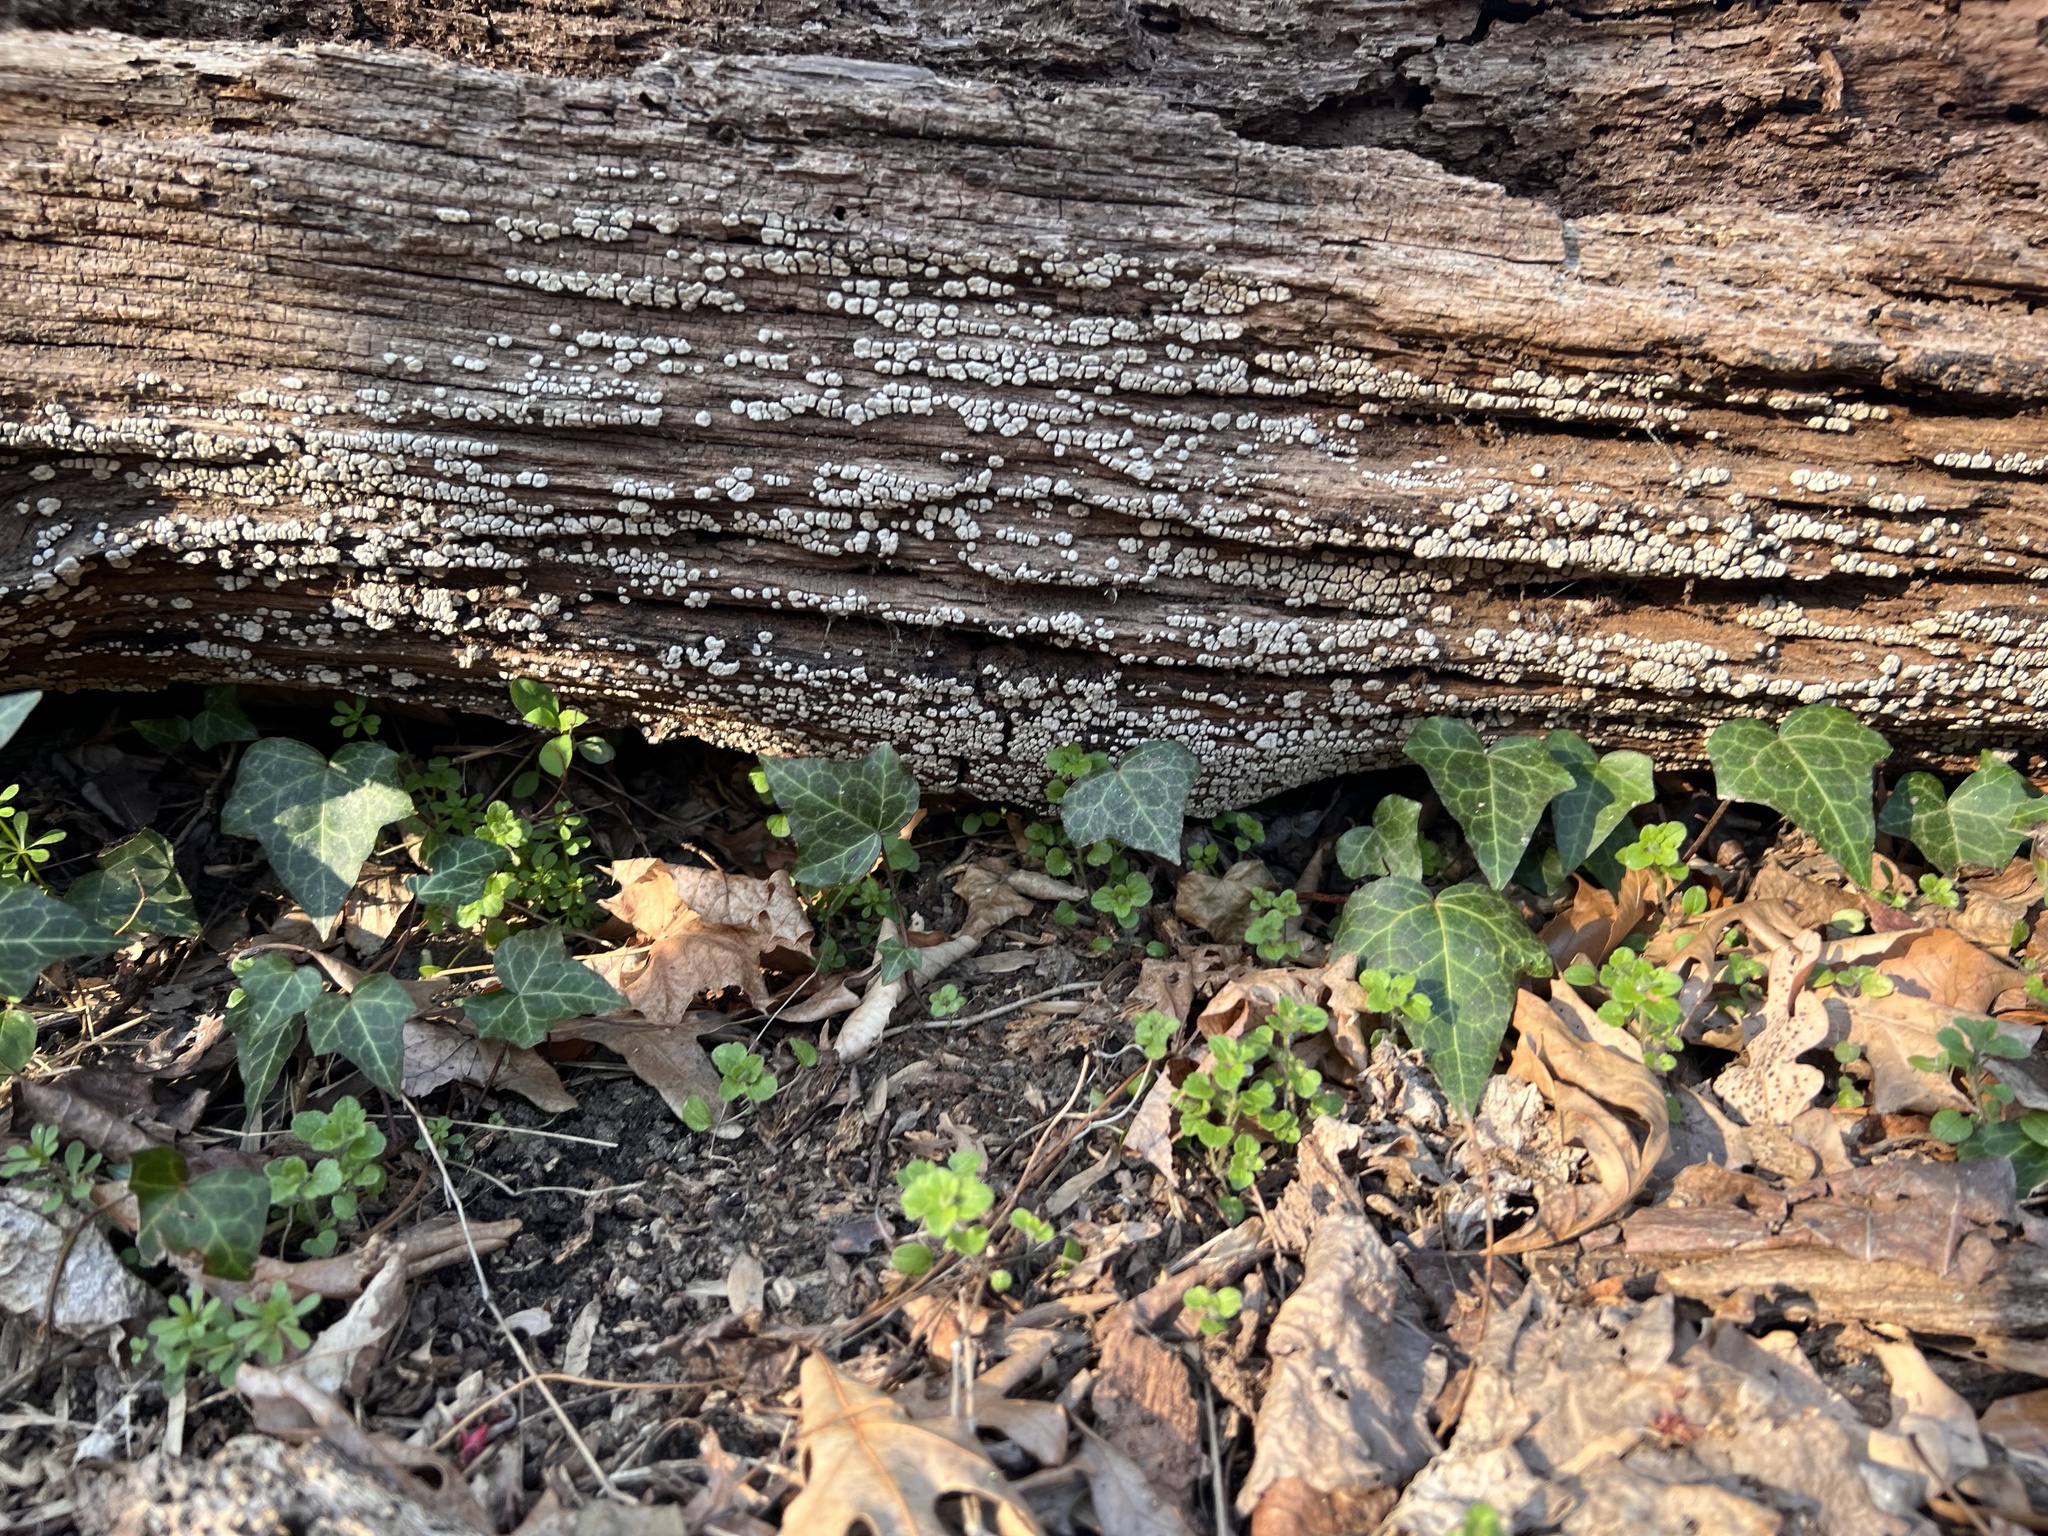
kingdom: Fungi
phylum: Basidiomycota
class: Agaricomycetes
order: Russulales
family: Stereaceae
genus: Xylobolus
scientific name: Xylobolus frustulatus
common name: Ceramic parchment
